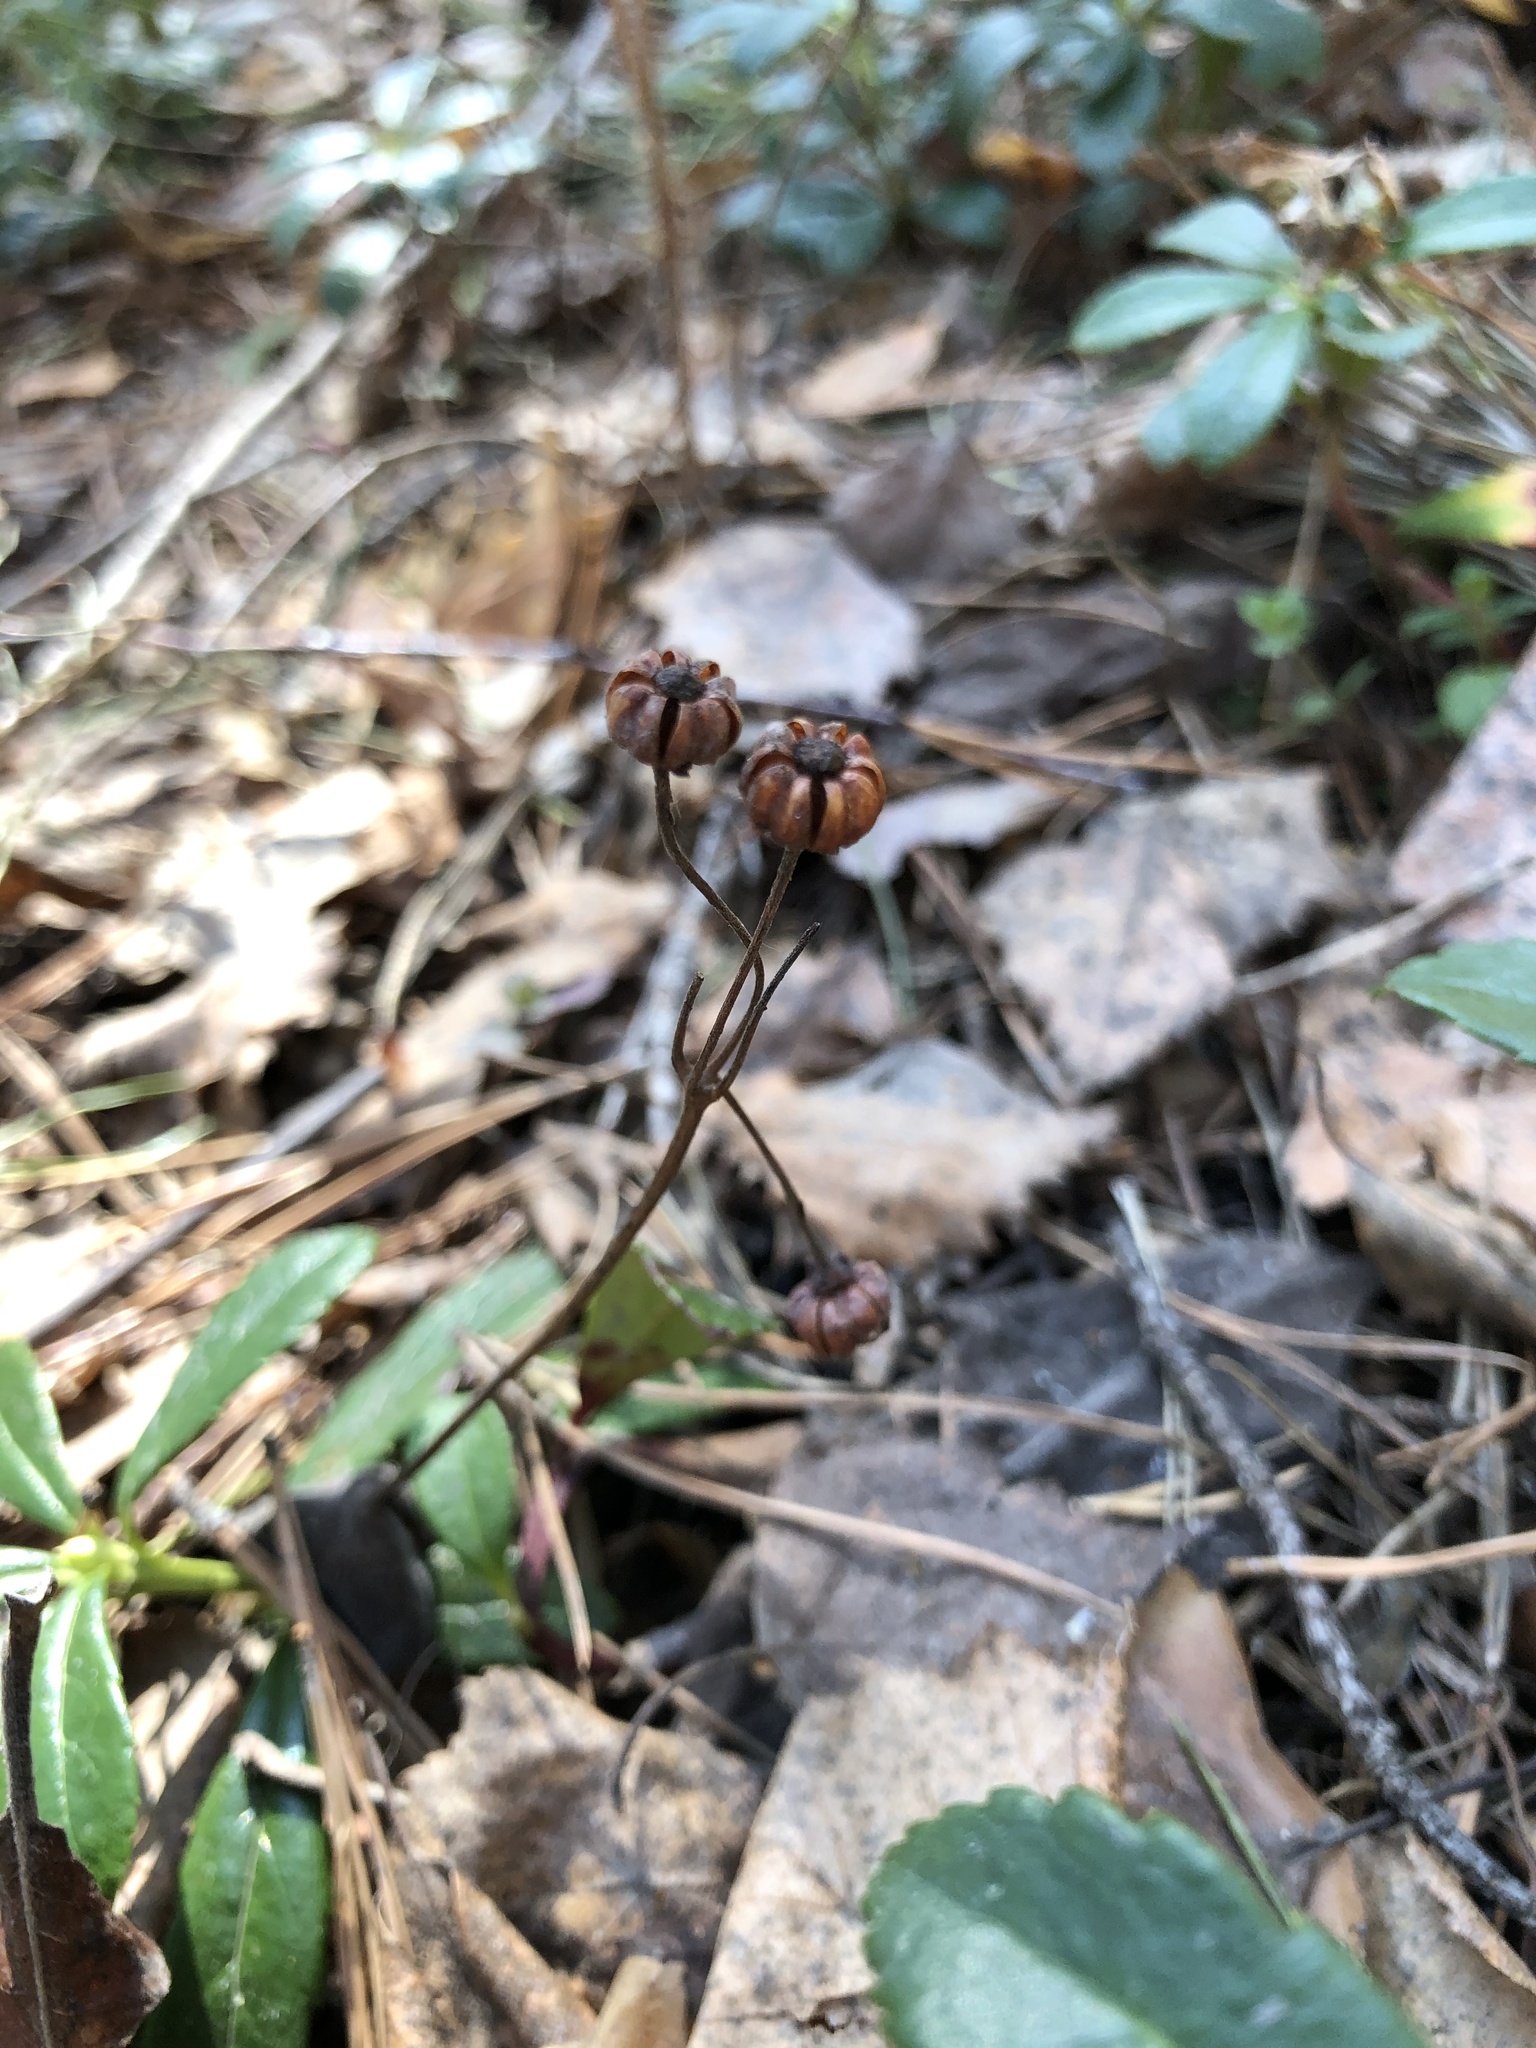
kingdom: Plantae
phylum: Tracheophyta
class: Magnoliopsida
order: Ericales
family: Ericaceae
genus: Chimaphila
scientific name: Chimaphila umbellata
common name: Pipsissewa
